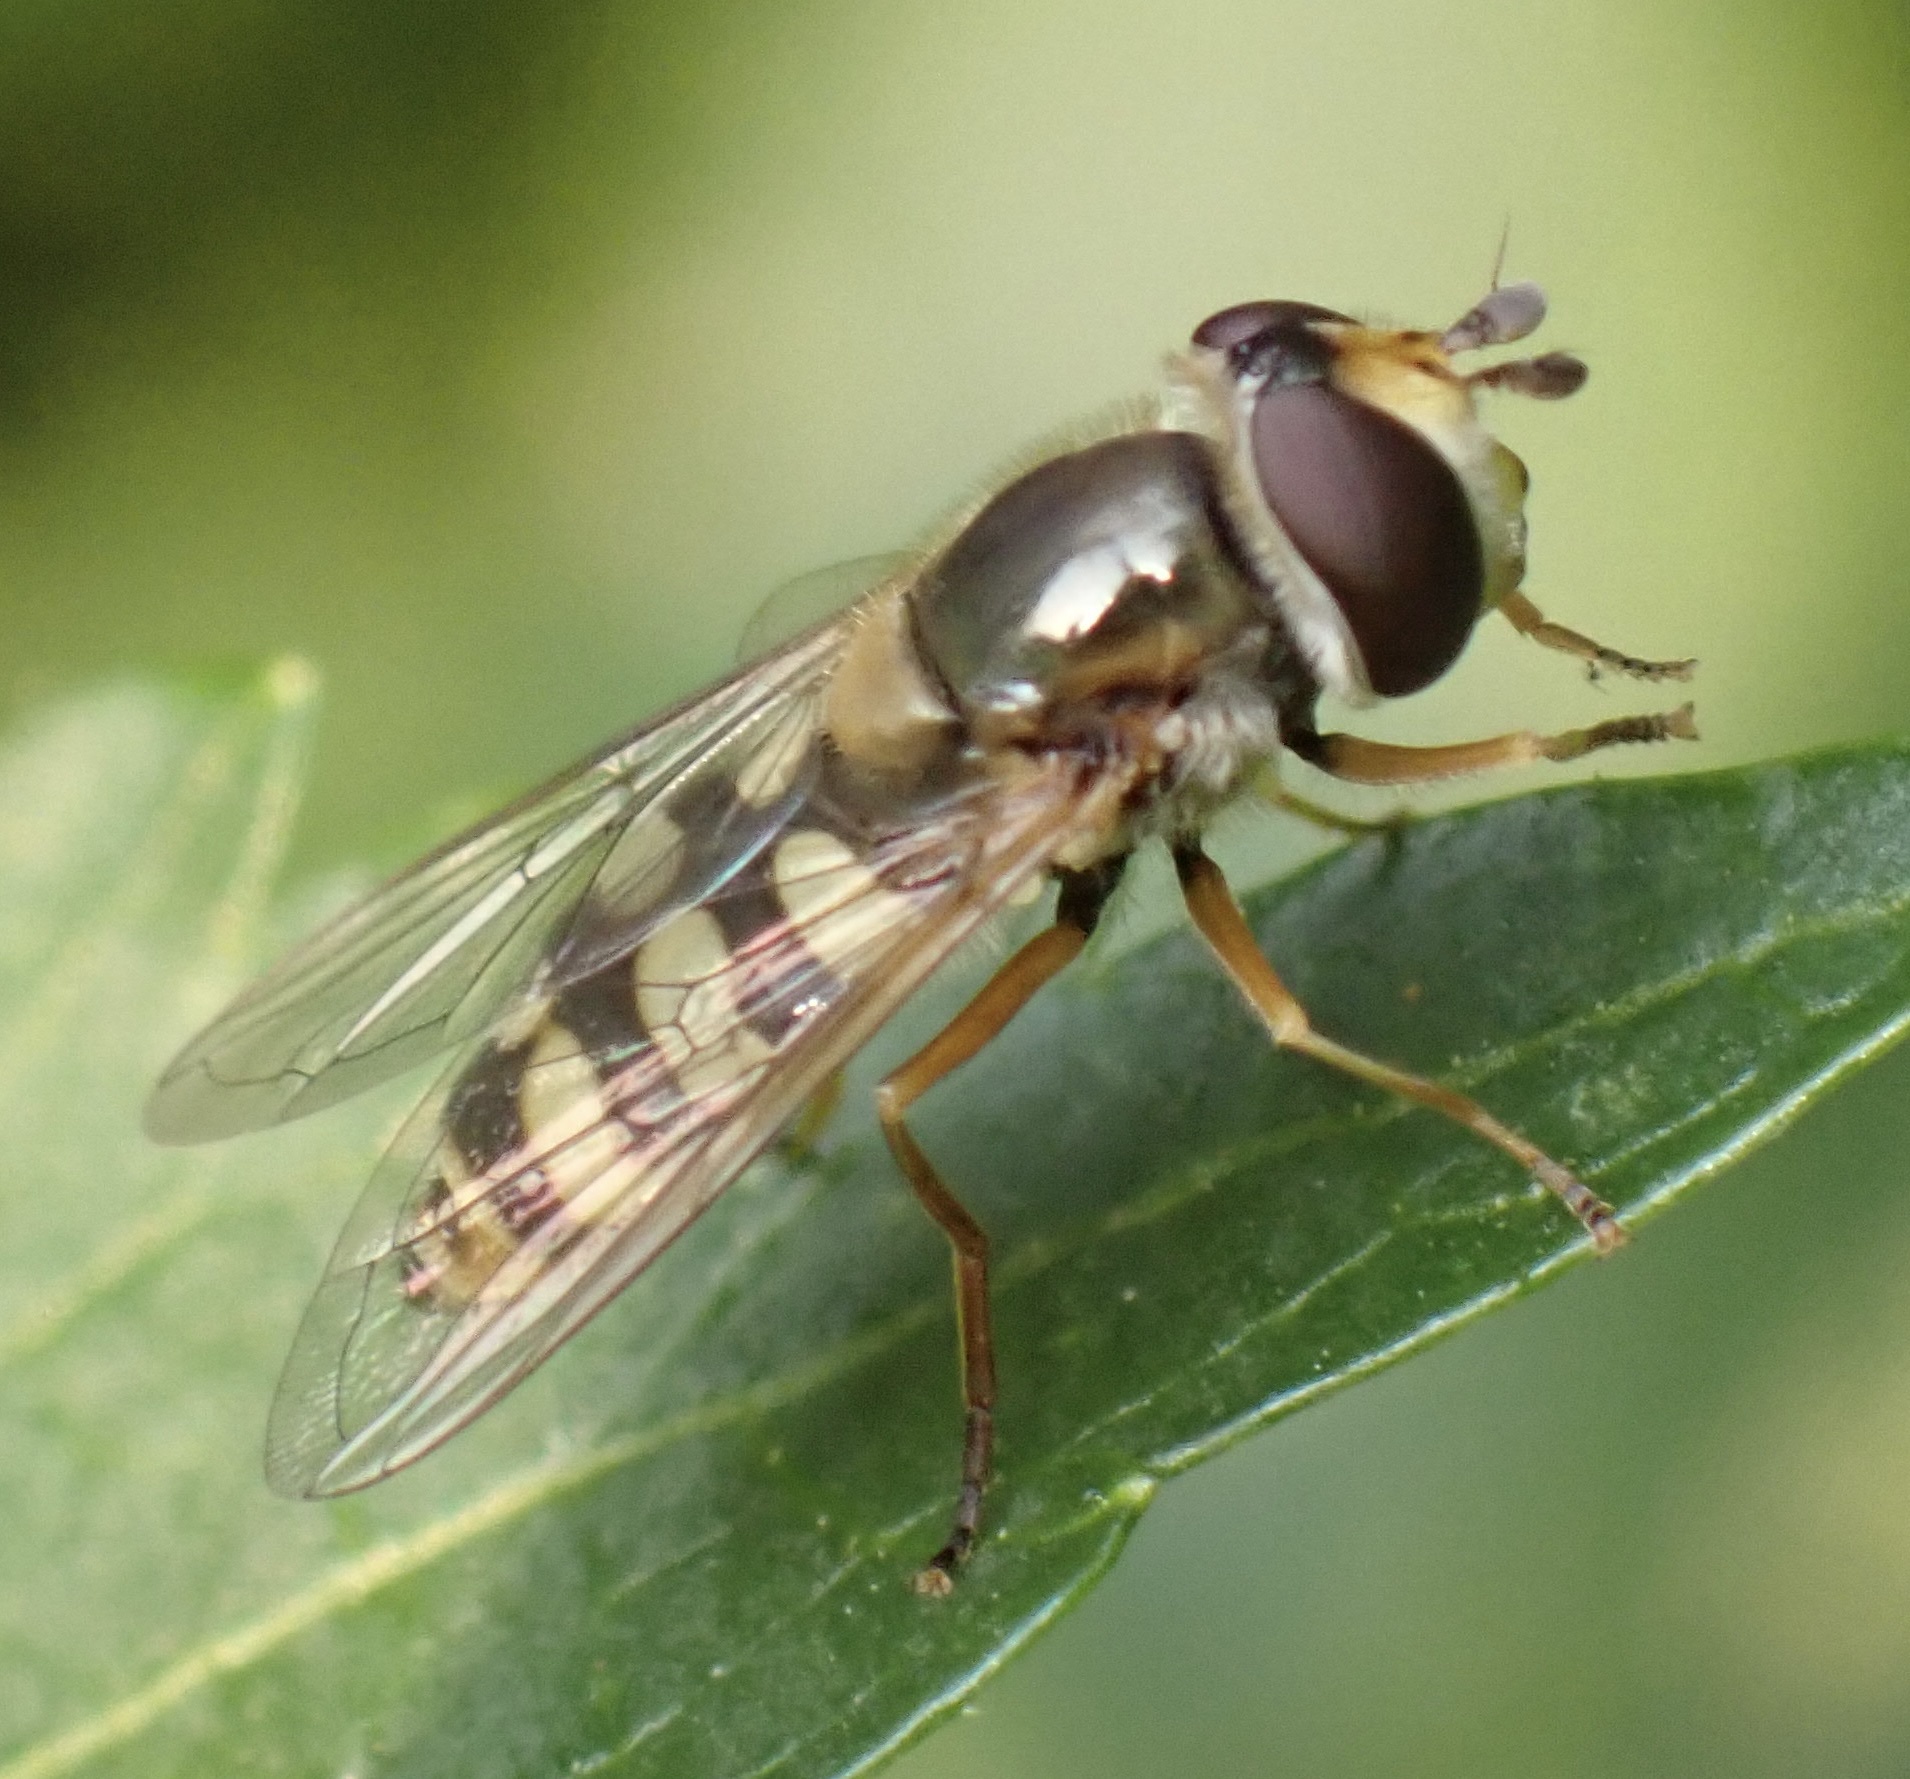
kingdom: Animalia
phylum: Arthropoda
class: Insecta
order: Diptera
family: Syrphidae
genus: Eupeodes
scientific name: Eupeodes corollae
